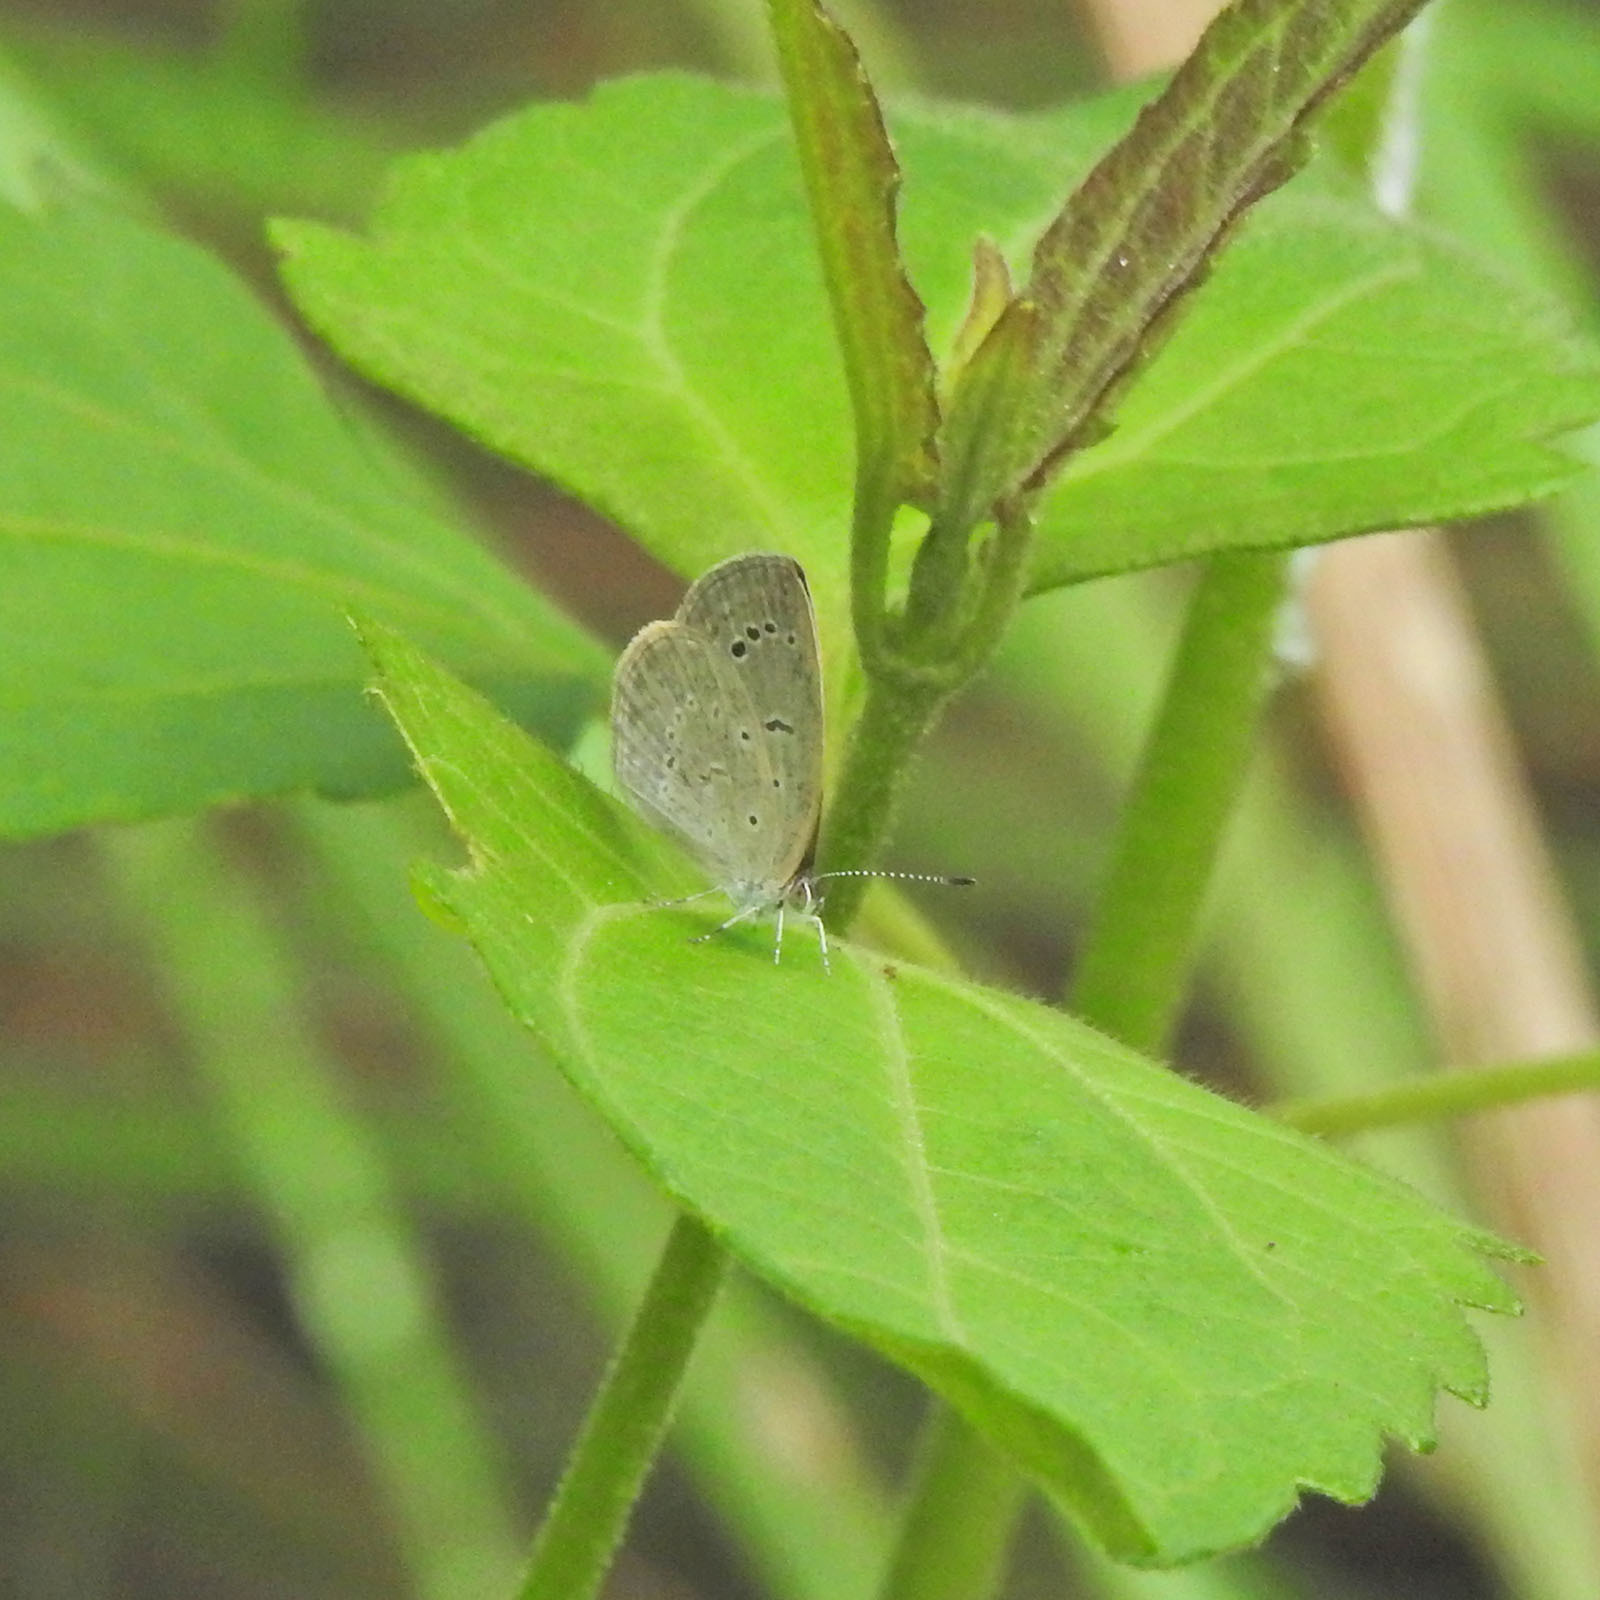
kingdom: Animalia
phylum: Arthropoda
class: Insecta
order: Lepidoptera
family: Lycaenidae
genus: Pseudozizeeria
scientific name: Pseudozizeeria maha
